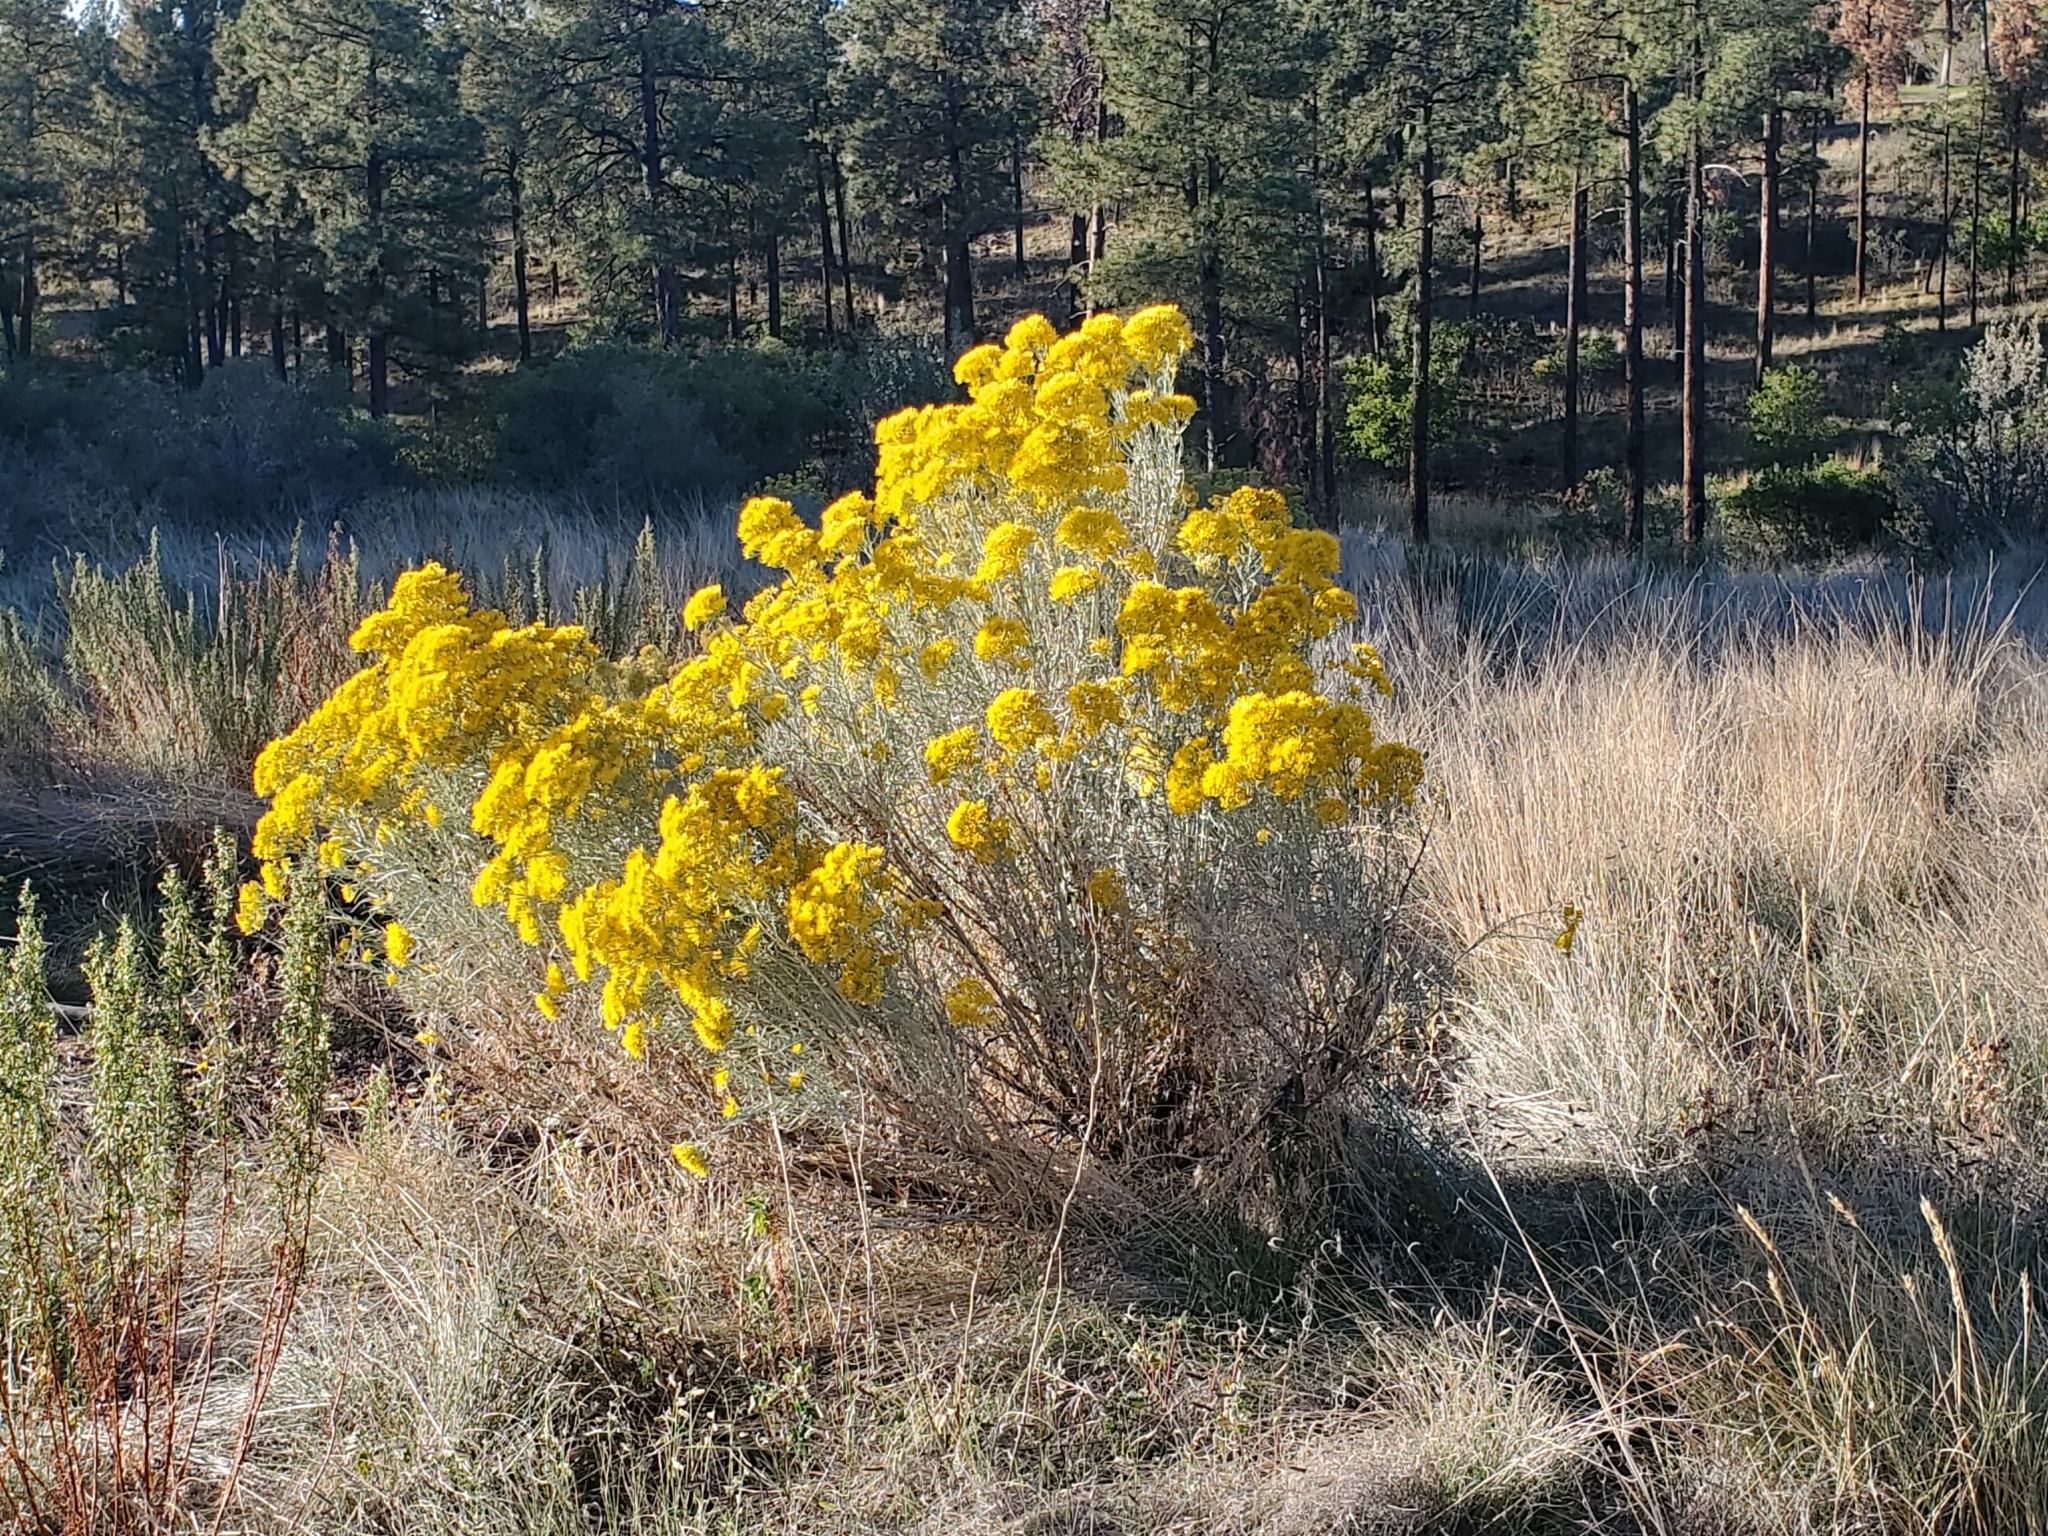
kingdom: Plantae
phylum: Tracheophyta
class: Magnoliopsida
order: Asterales
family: Asteraceae
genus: Ericameria
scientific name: Ericameria nauseosa
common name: Rubber rabbitbrush
